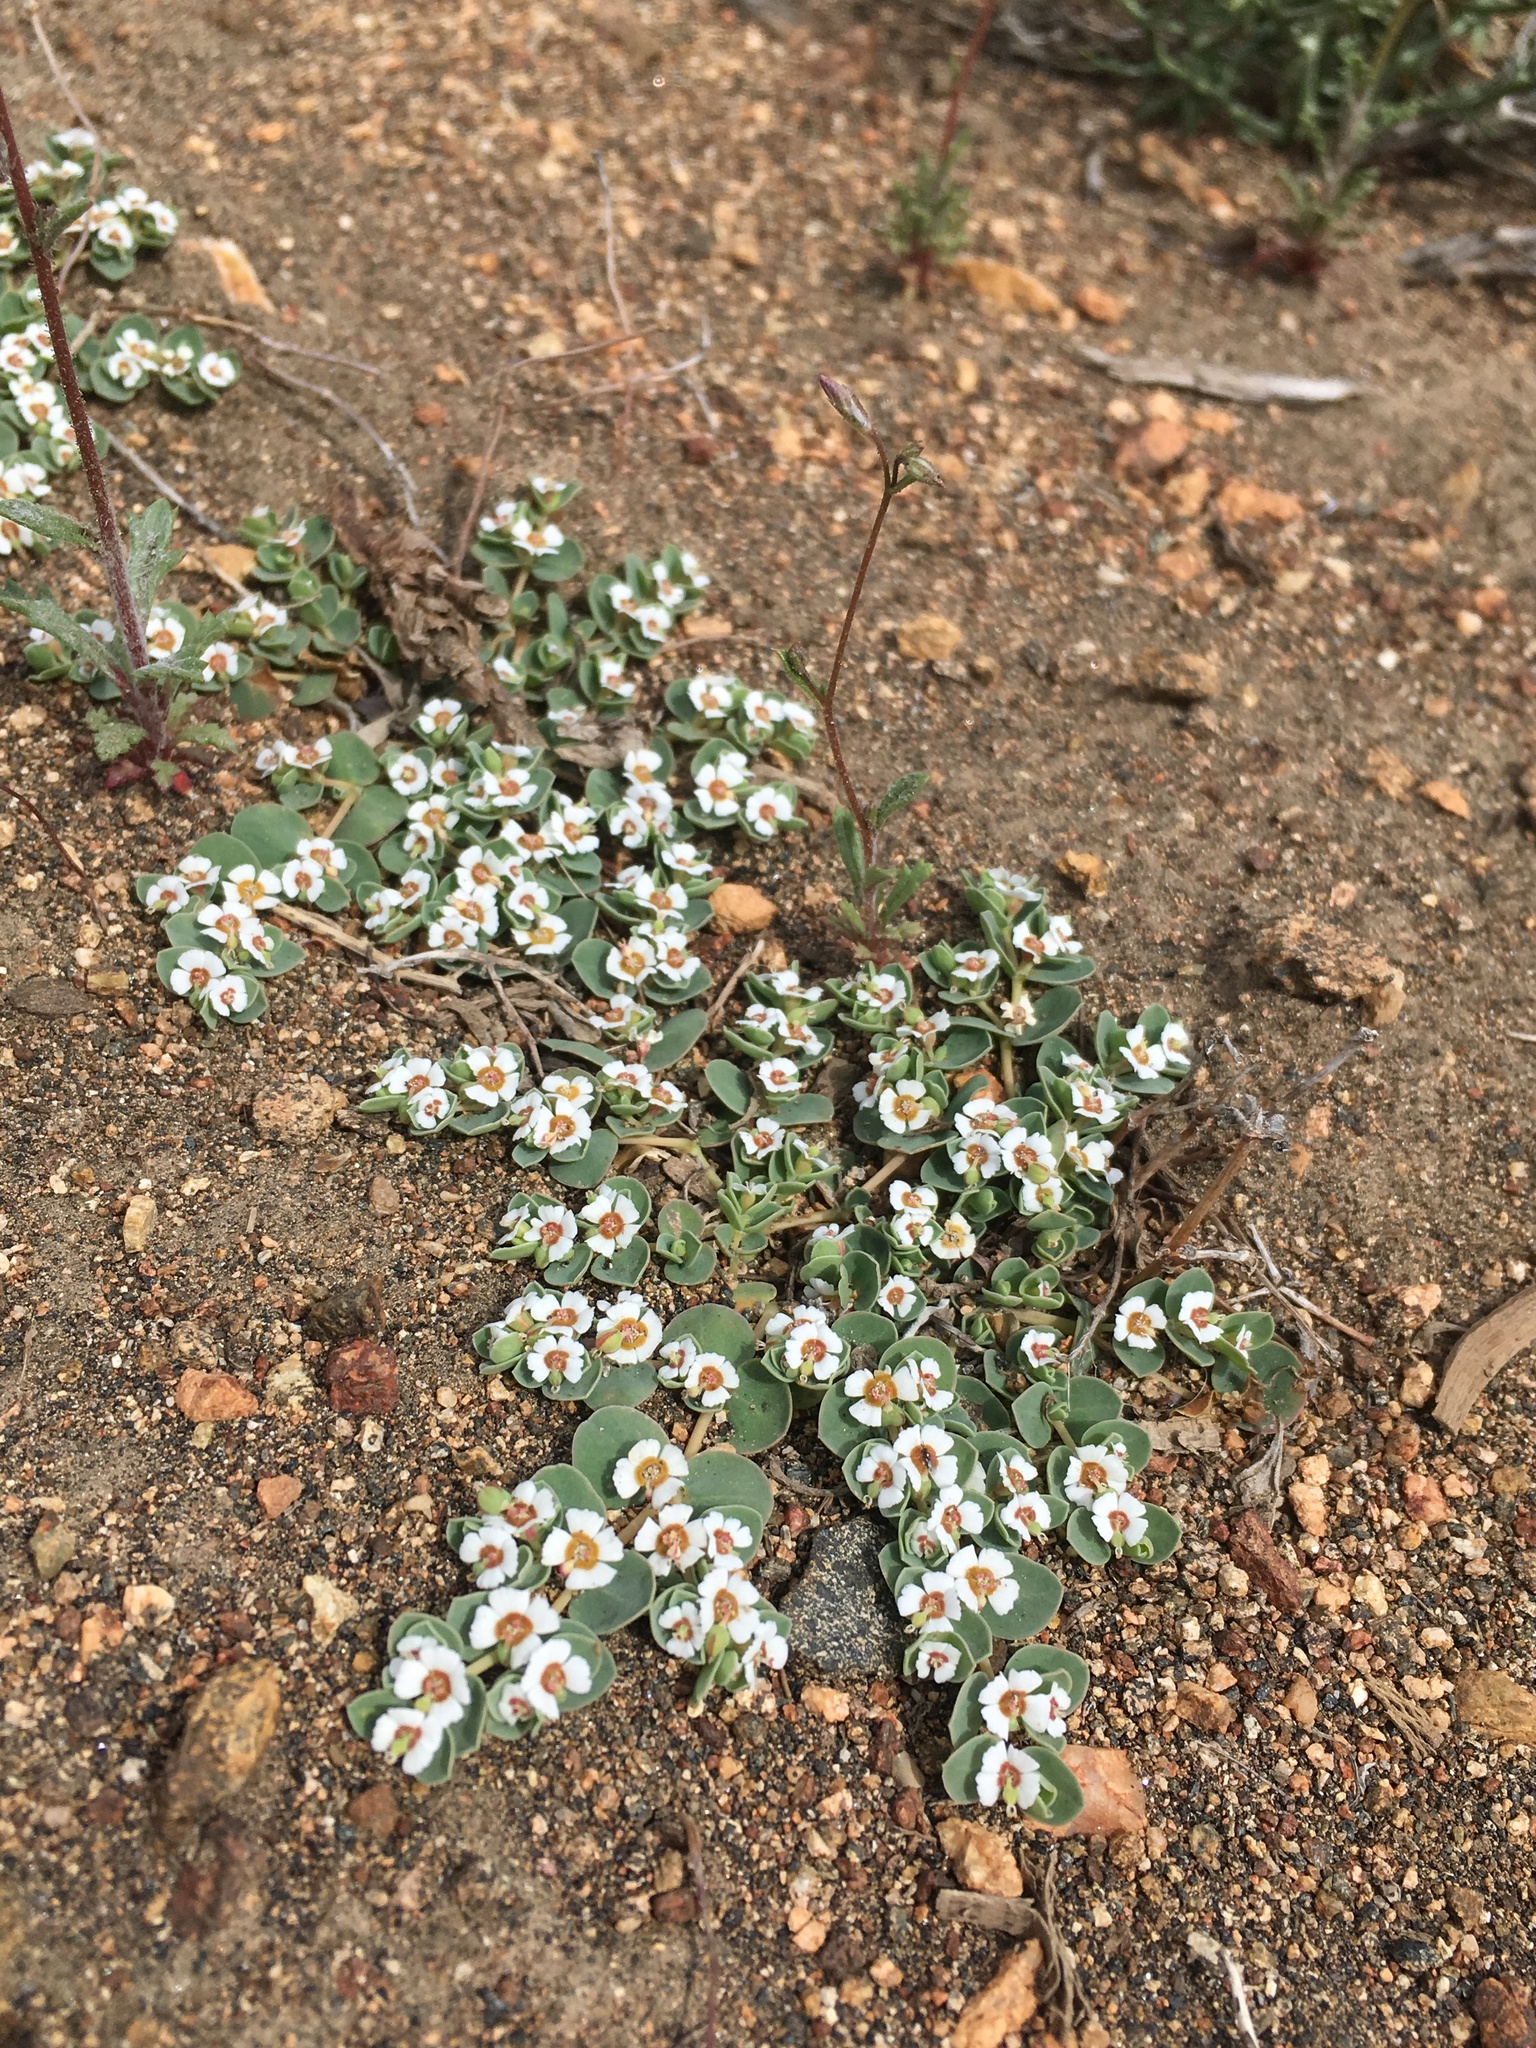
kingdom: Plantae
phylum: Tracheophyta
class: Magnoliopsida
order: Malpighiales
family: Euphorbiaceae
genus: Euphorbia
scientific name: Euphorbia albomarginata
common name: Whitemargin sandmat
